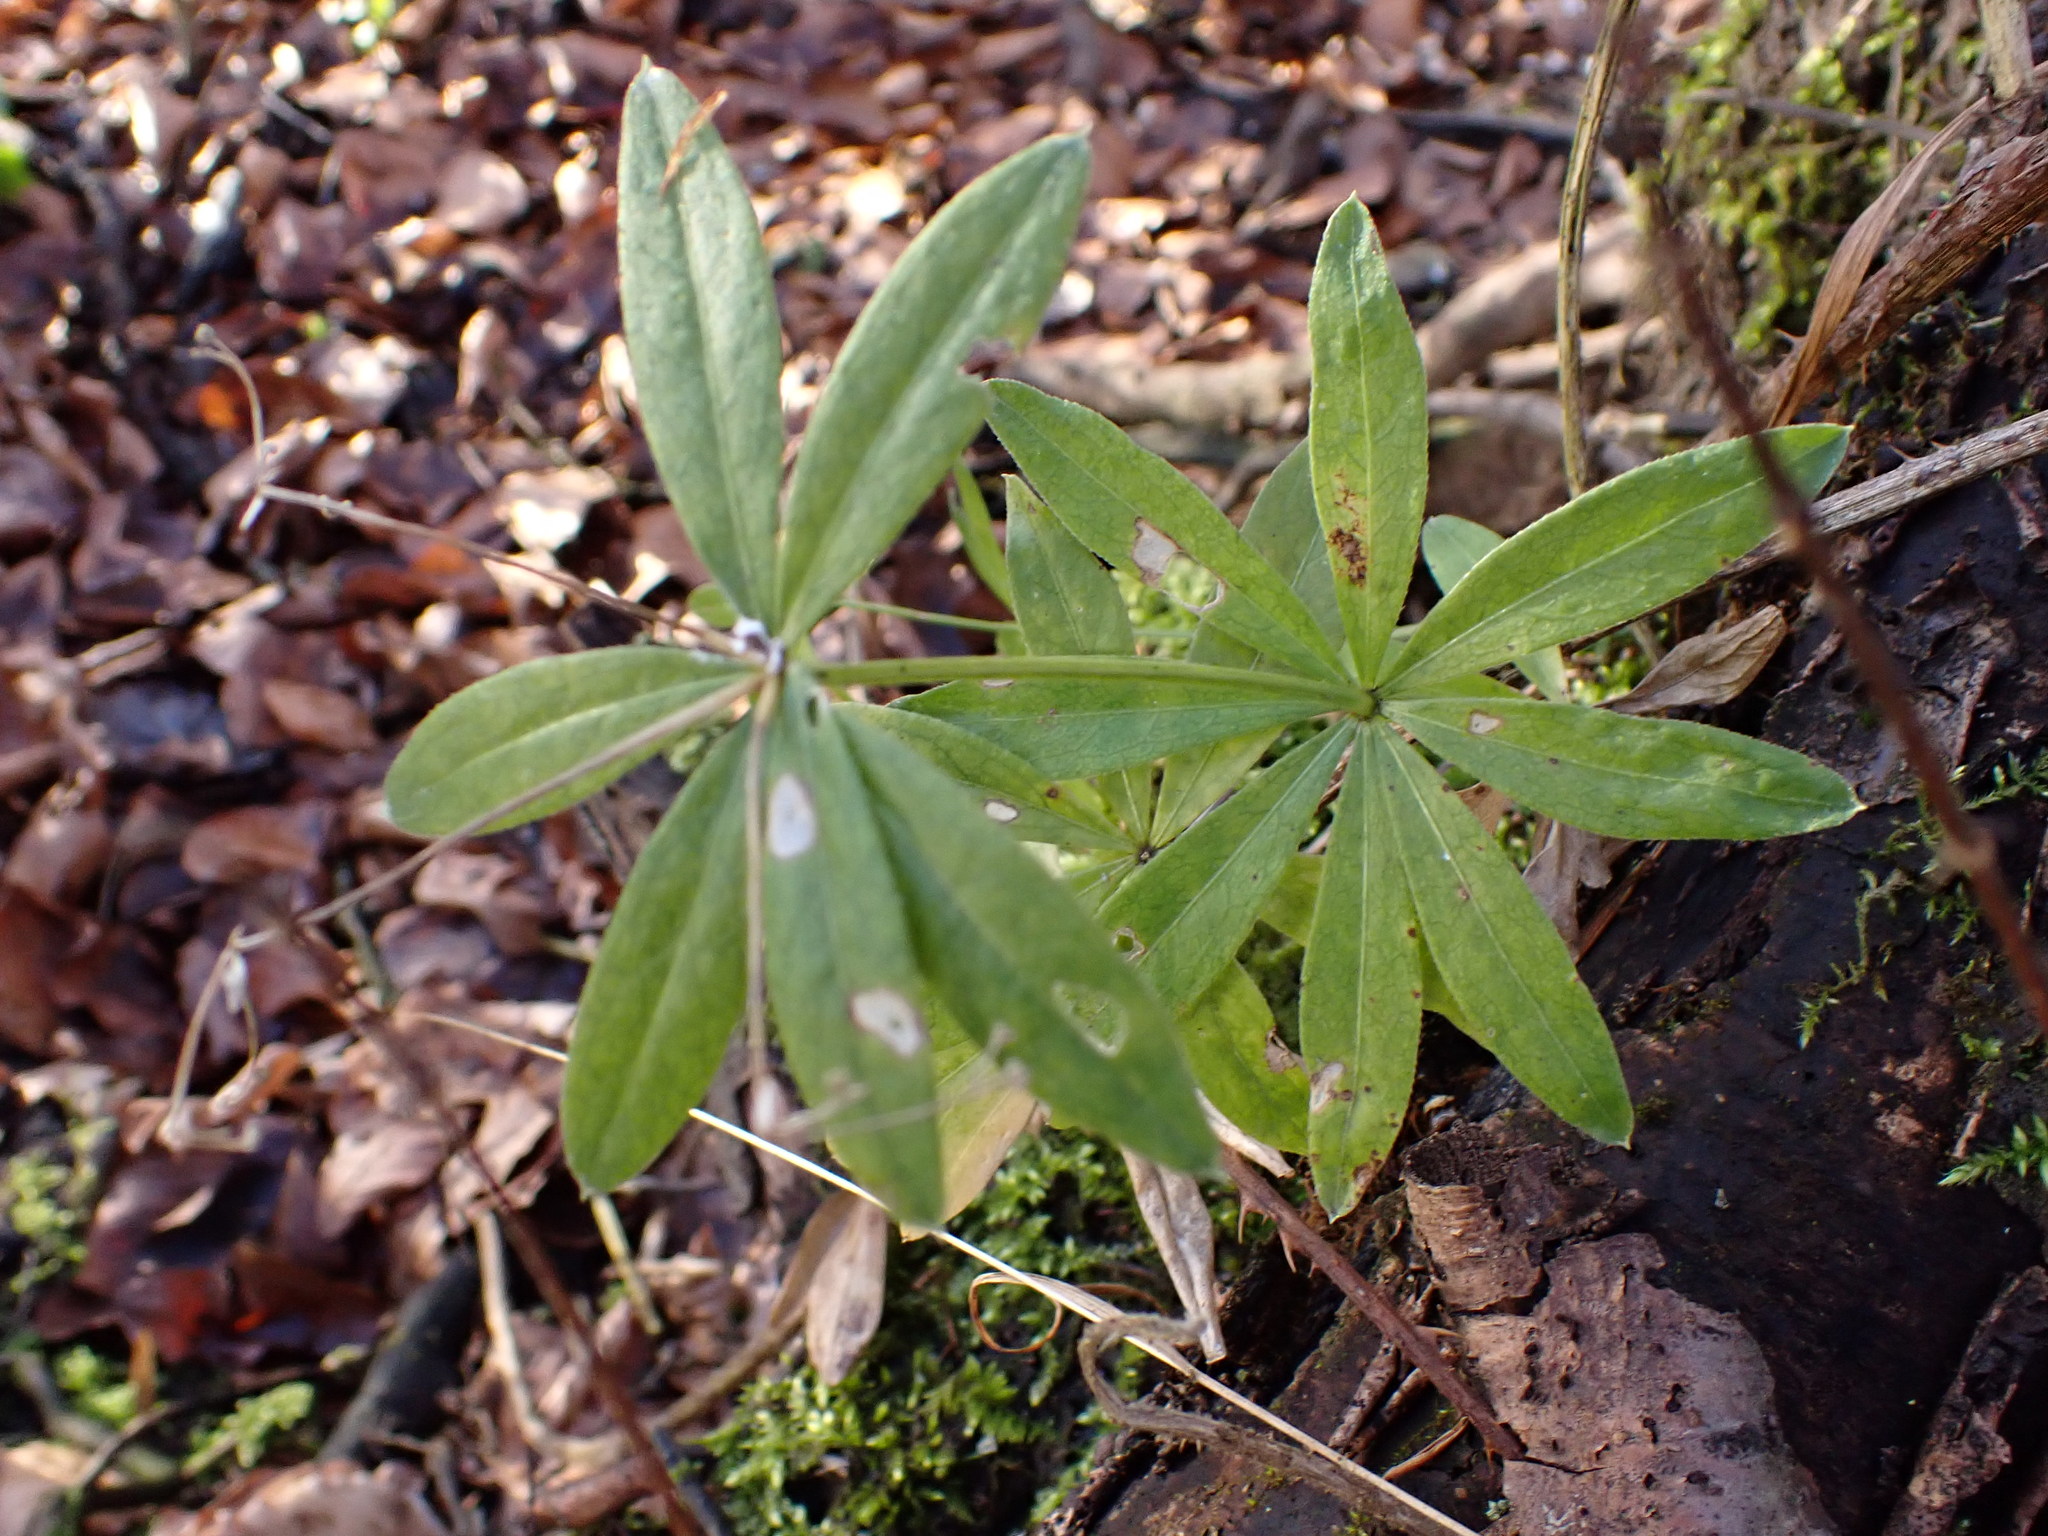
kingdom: Plantae
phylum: Tracheophyta
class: Magnoliopsida
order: Gentianales
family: Rubiaceae
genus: Galium
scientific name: Galium odoratum
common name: Sweet woodruff
